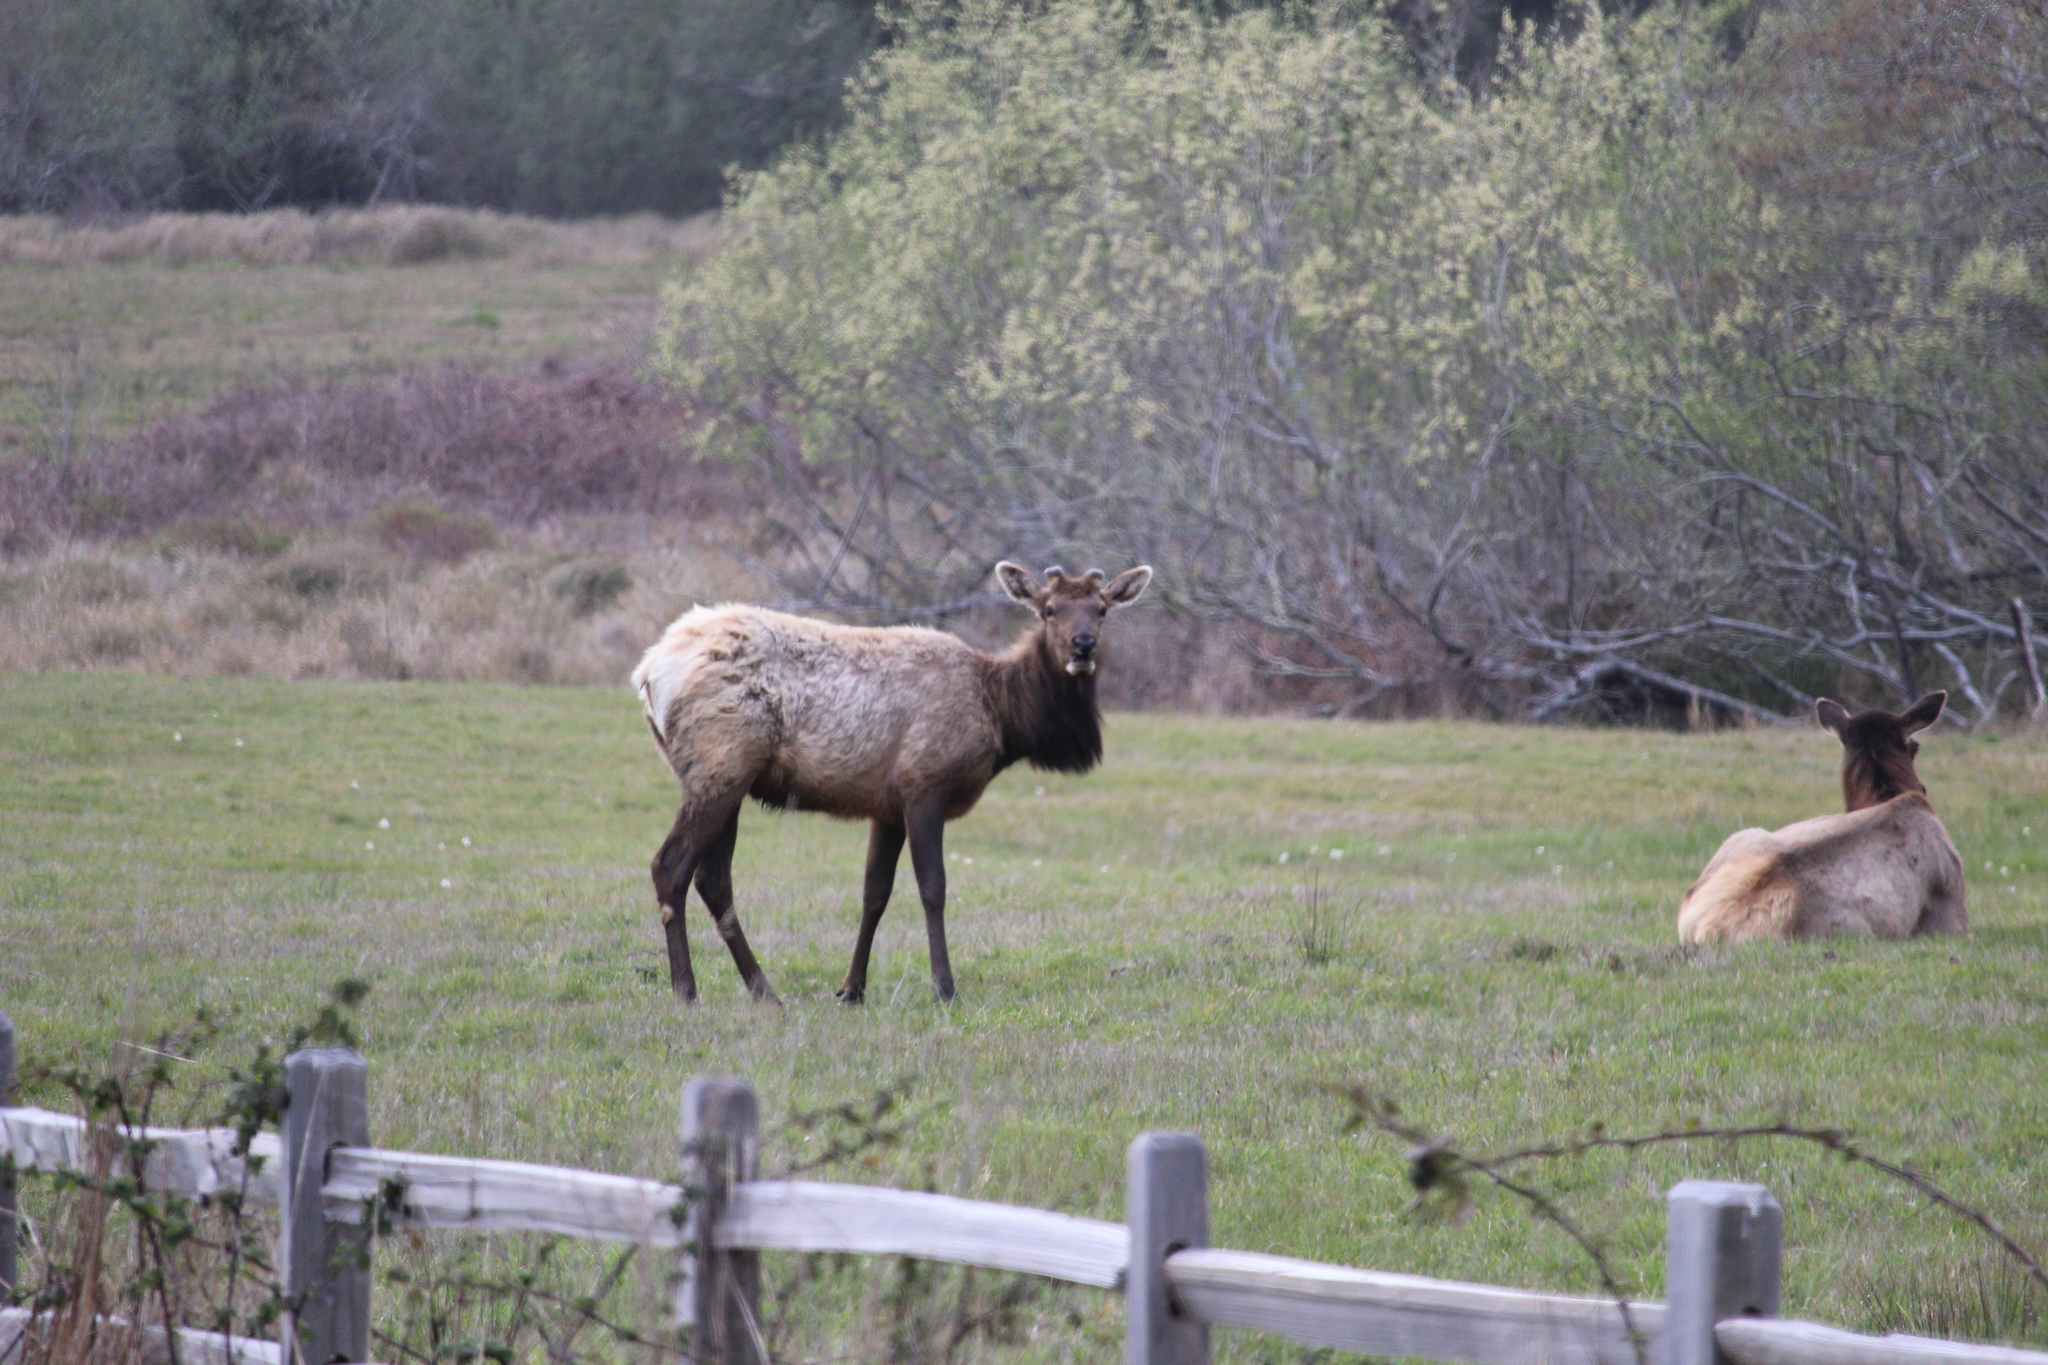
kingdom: Animalia
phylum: Chordata
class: Mammalia
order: Artiodactyla
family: Cervidae
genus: Cervus
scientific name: Cervus elaphus
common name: Red deer
